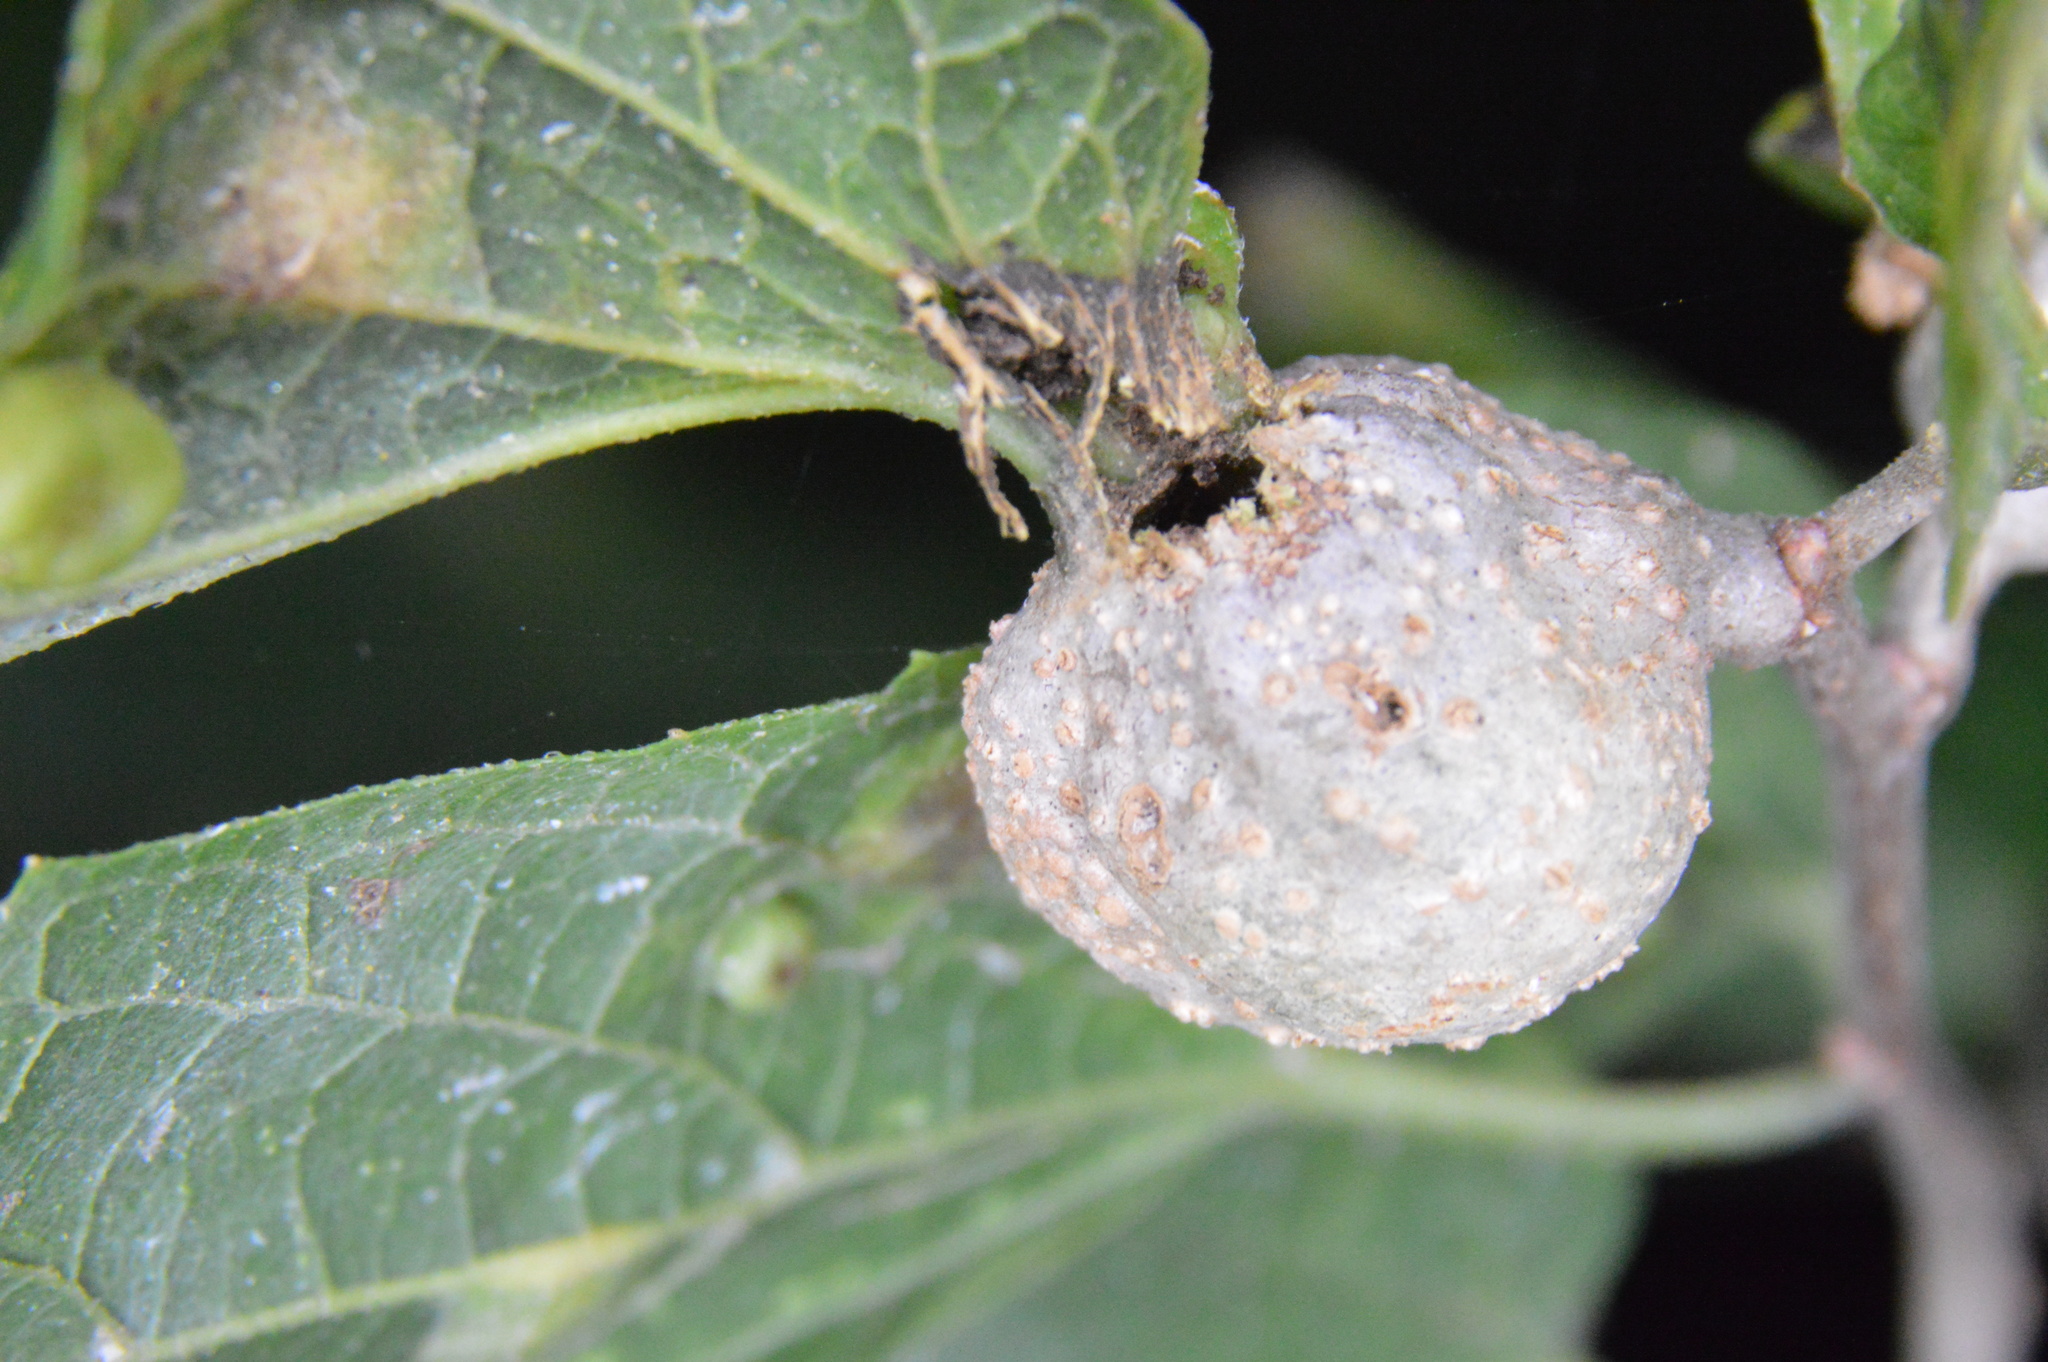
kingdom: Animalia
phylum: Arthropoda
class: Insecta
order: Hemiptera
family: Aphalaridae
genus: Pachypsylla
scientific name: Pachypsylla venusta
